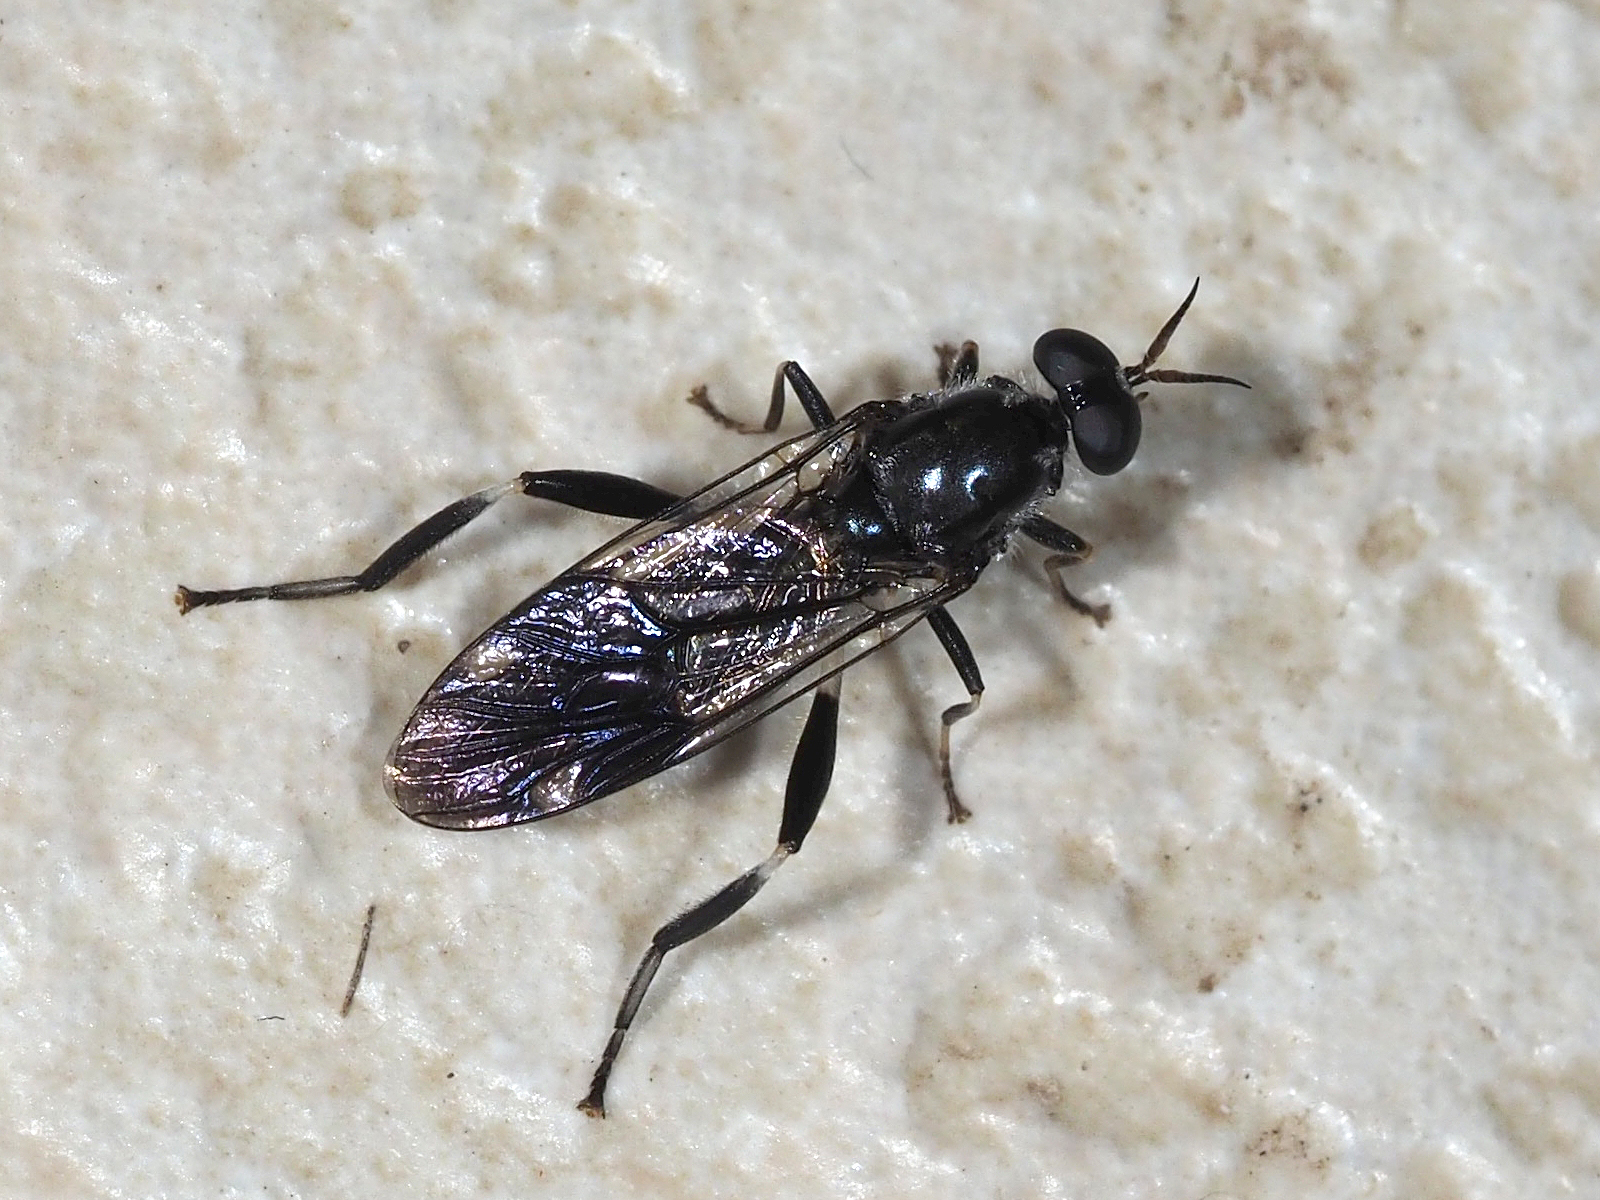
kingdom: Animalia
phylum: Arthropoda
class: Insecta
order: Diptera
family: Stratiomyidae
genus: Exaireta
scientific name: Exaireta spinigera
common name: Blue soldier fly
